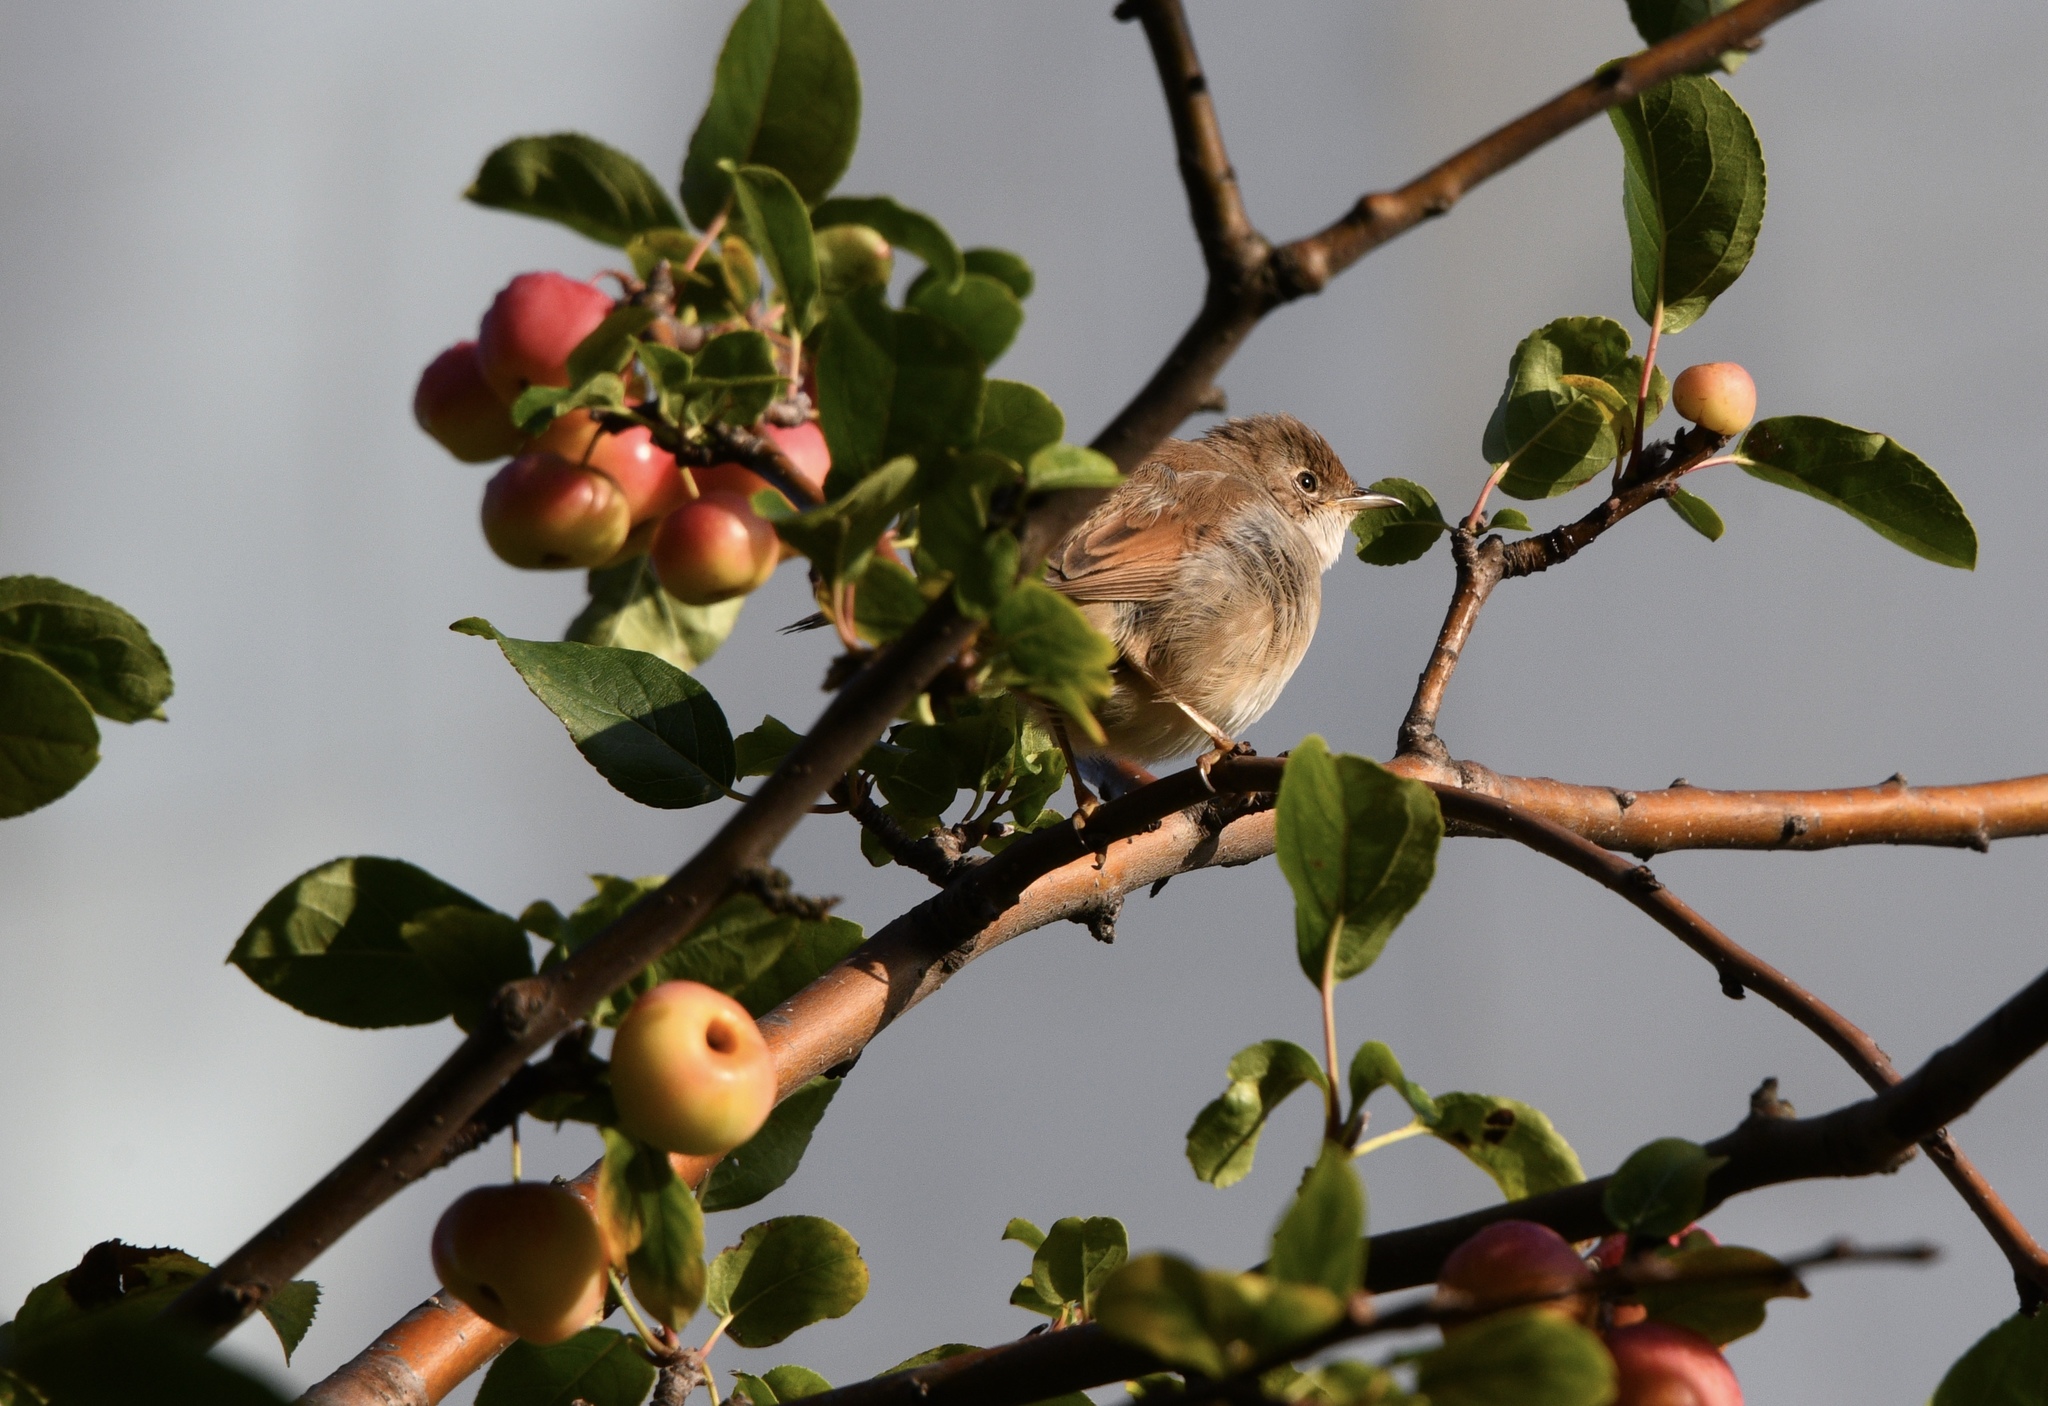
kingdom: Animalia
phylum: Chordata
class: Aves
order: Passeriformes
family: Sylviidae
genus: Sylvia
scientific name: Sylvia communis
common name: Common whitethroat
